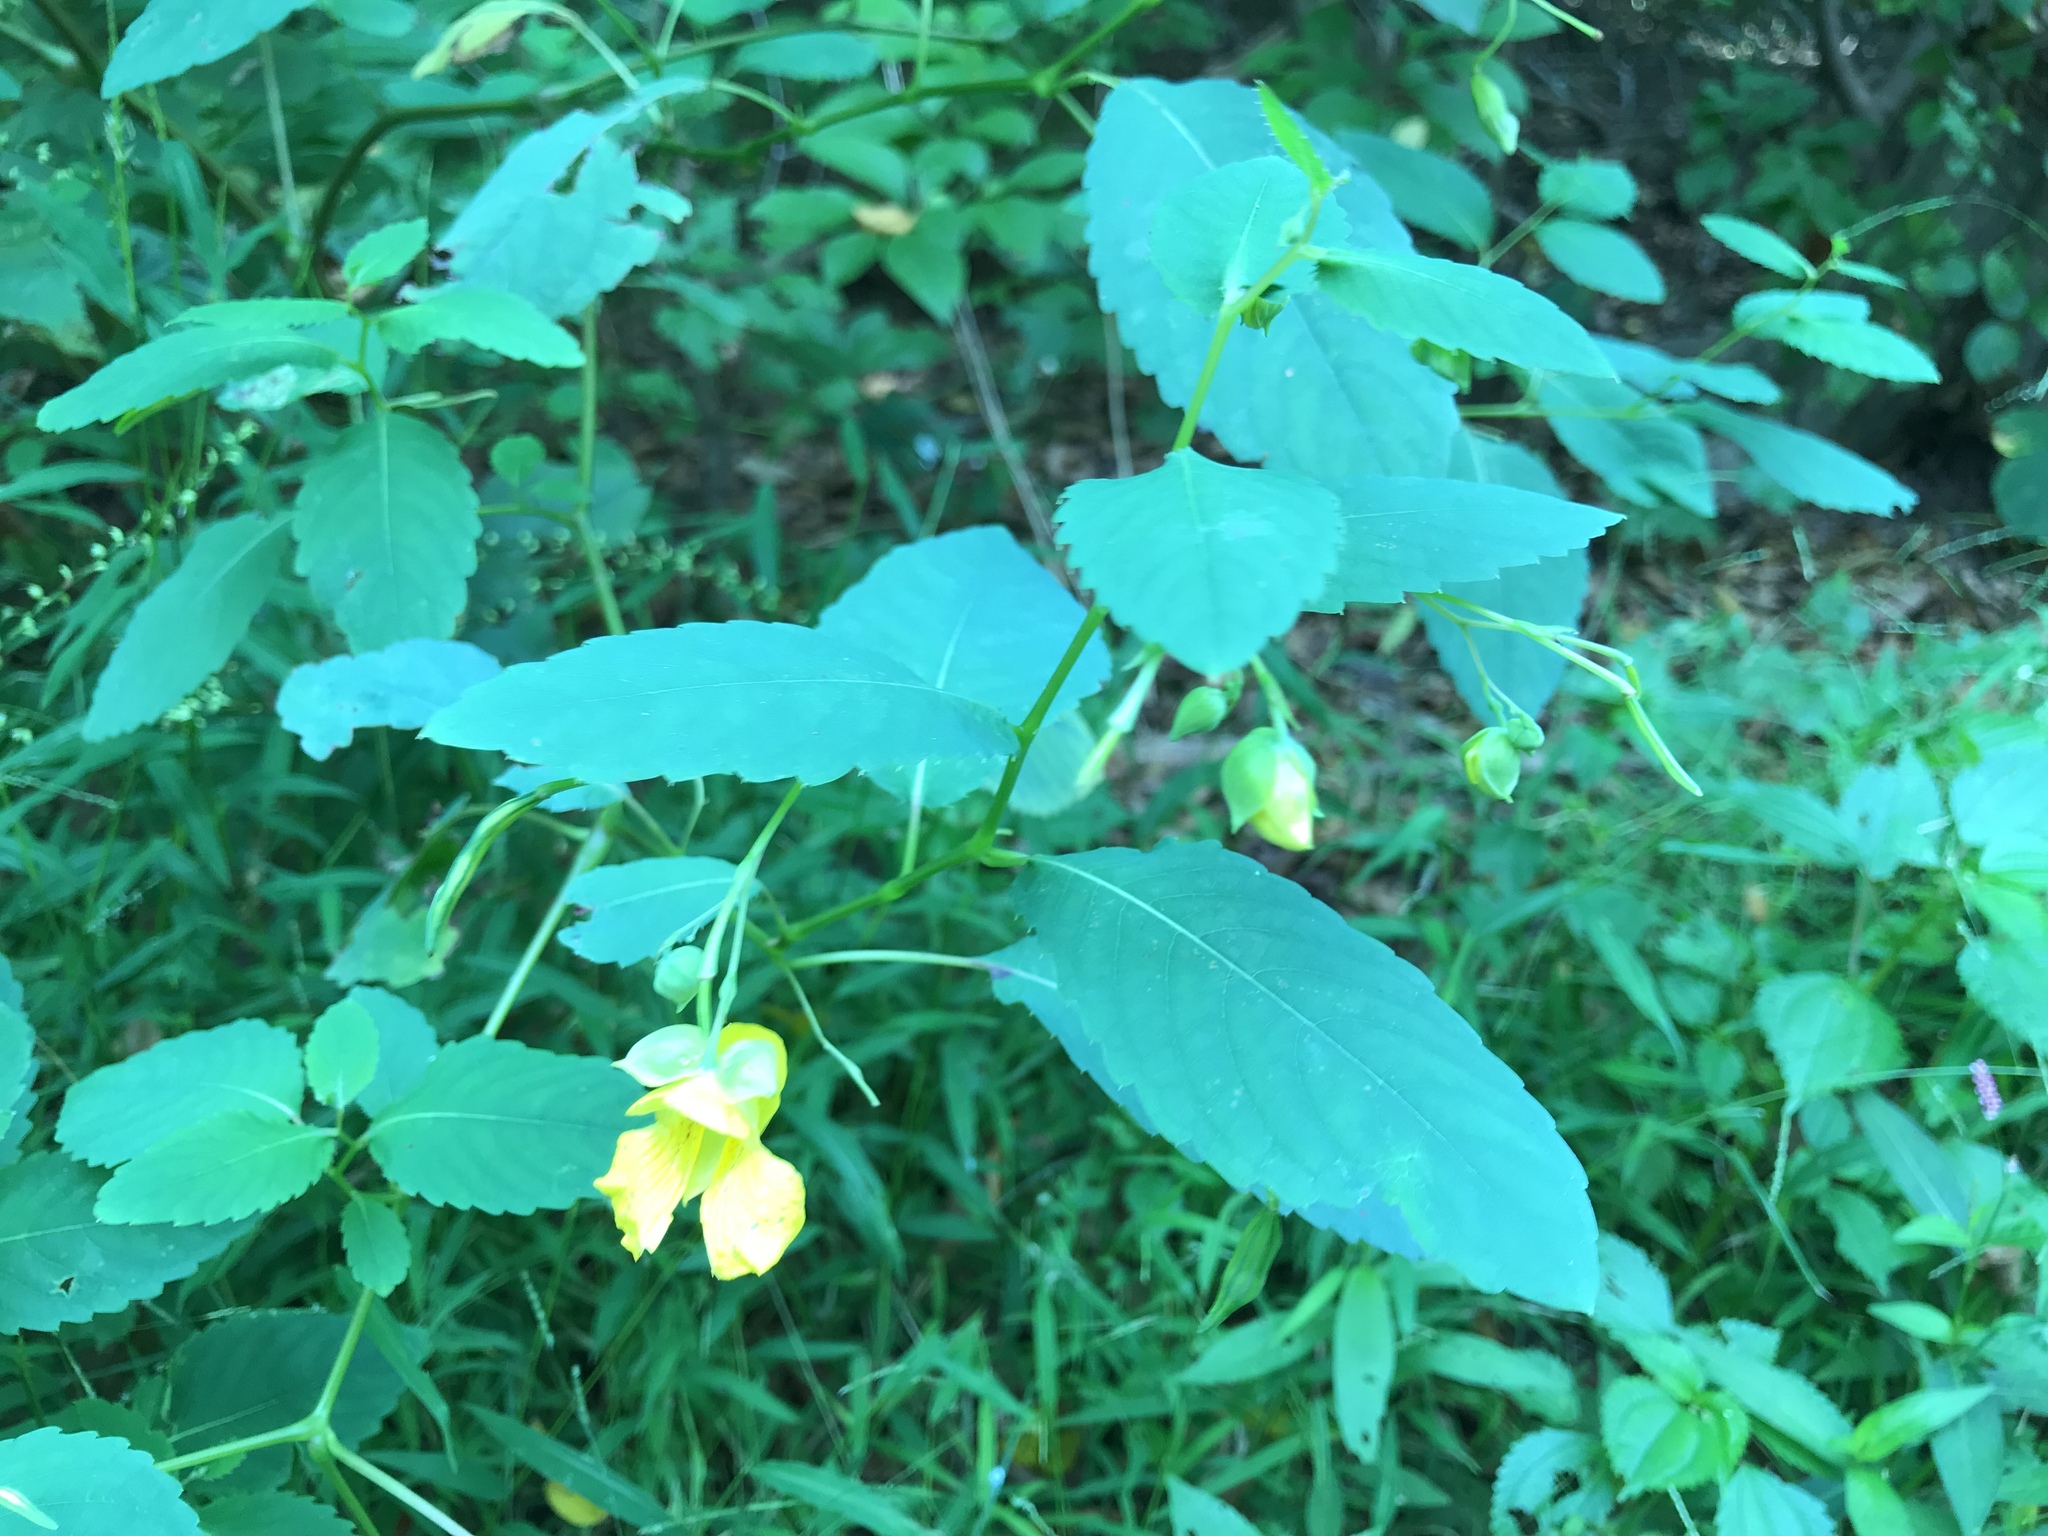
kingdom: Plantae
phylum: Tracheophyta
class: Magnoliopsida
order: Ericales
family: Balsaminaceae
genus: Impatiens
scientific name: Impatiens pallida
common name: Pale snapweed
